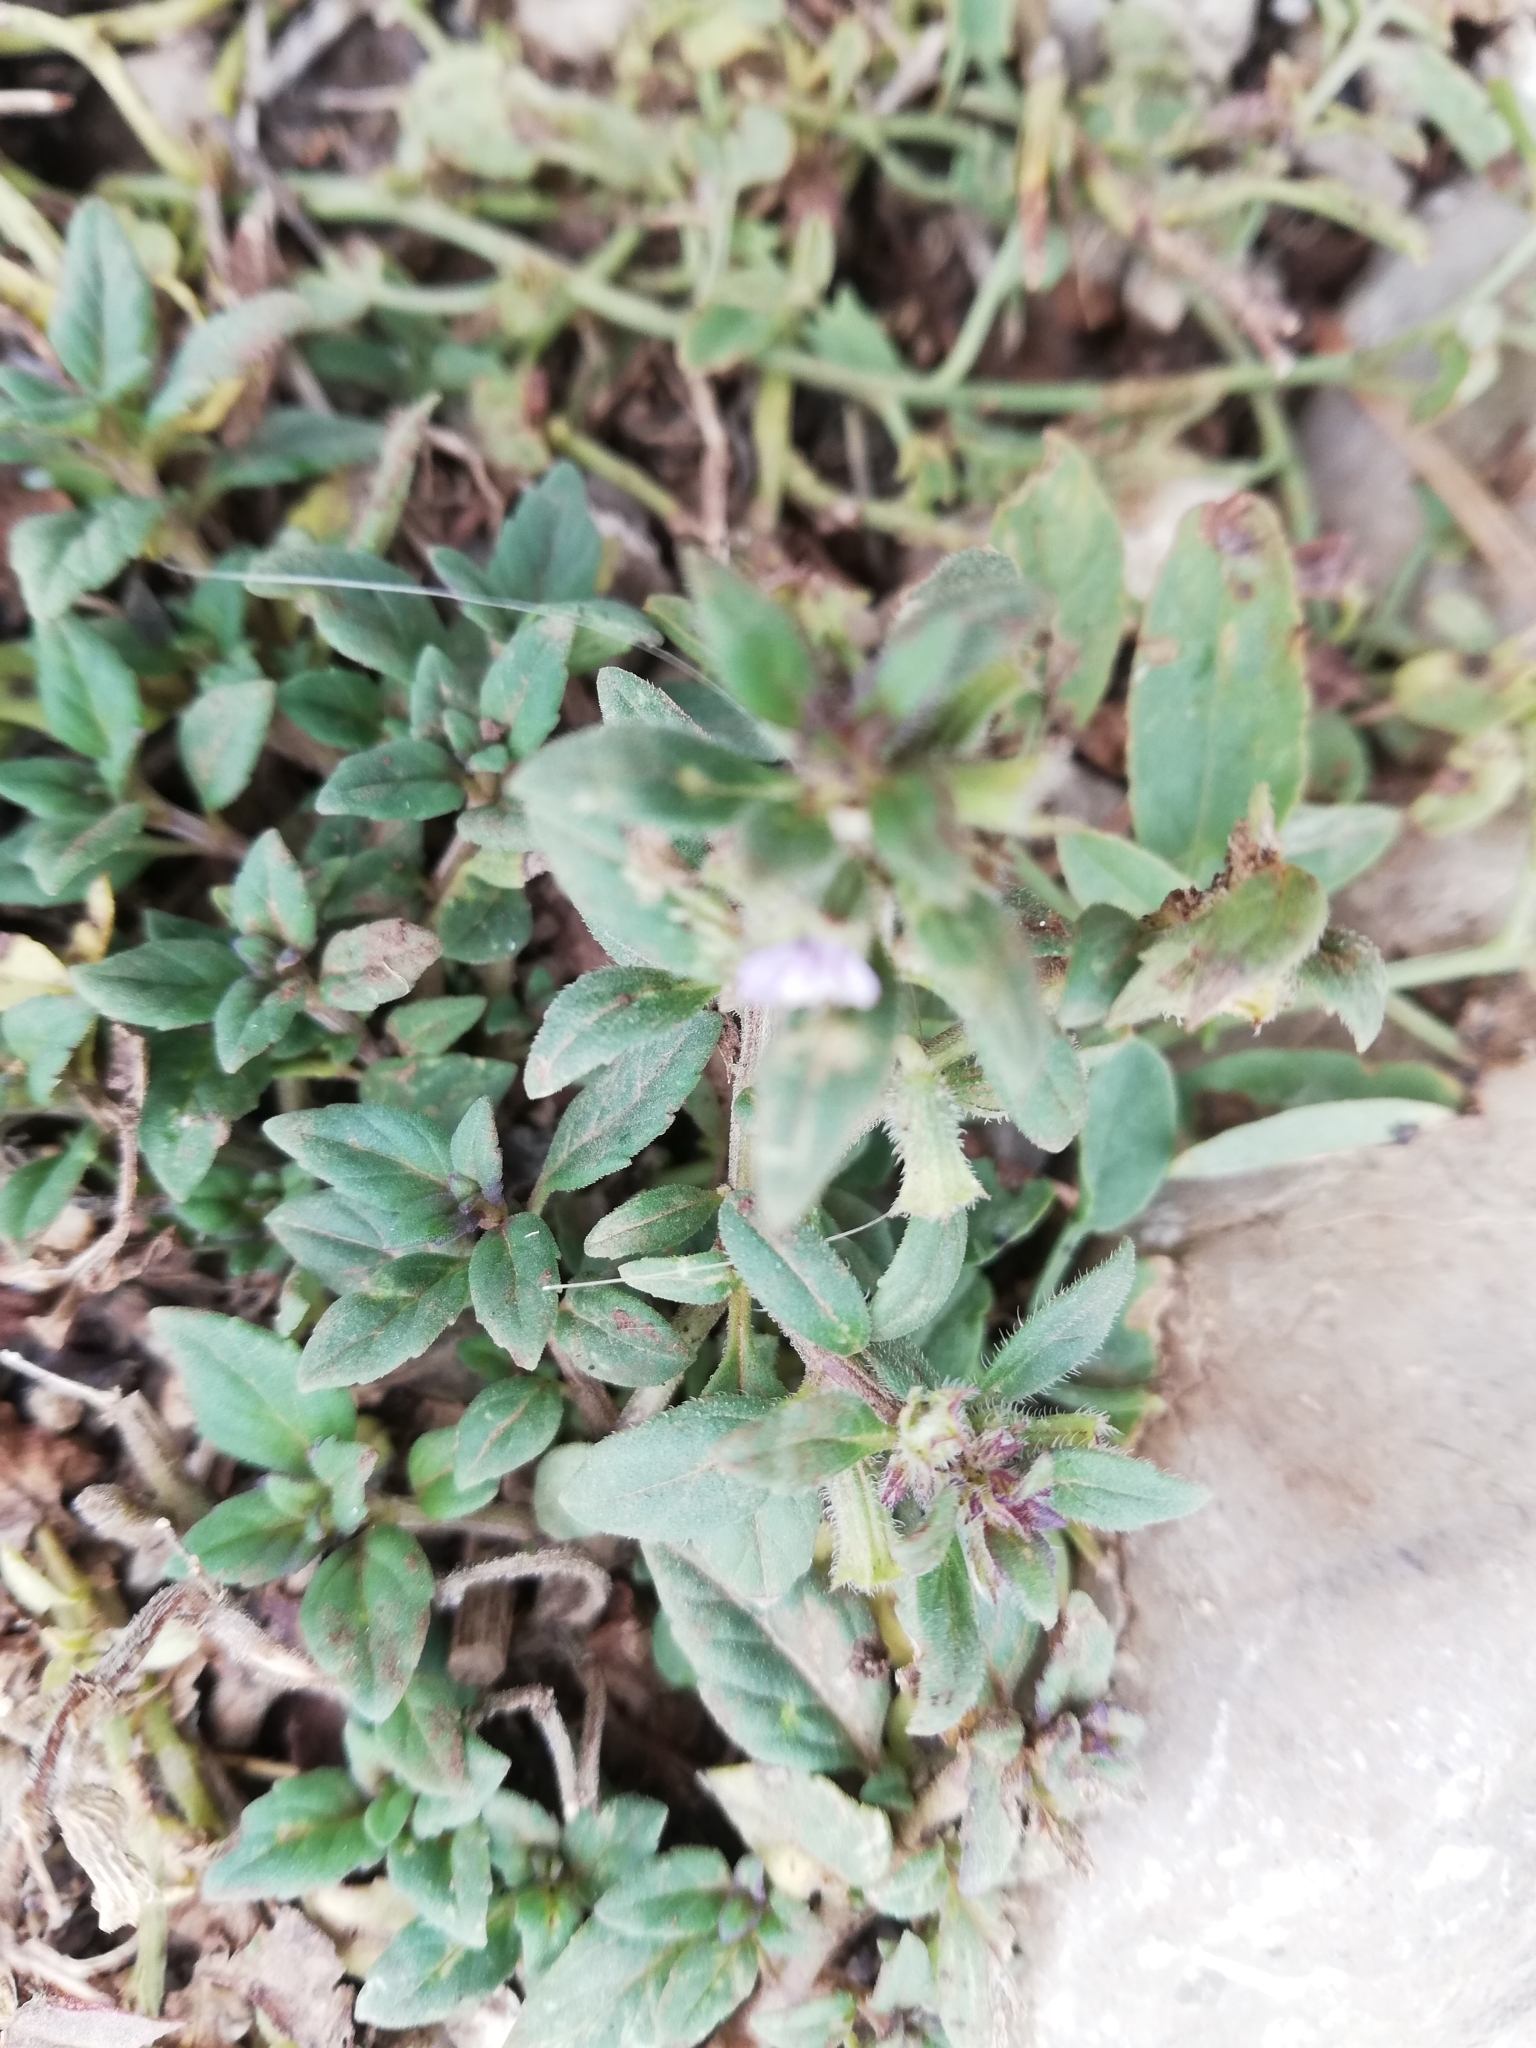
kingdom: Plantae
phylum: Tracheophyta
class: Magnoliopsida
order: Lamiales
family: Lamiaceae
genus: Clinopodium
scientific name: Clinopodium acinos
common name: Basil thyme
